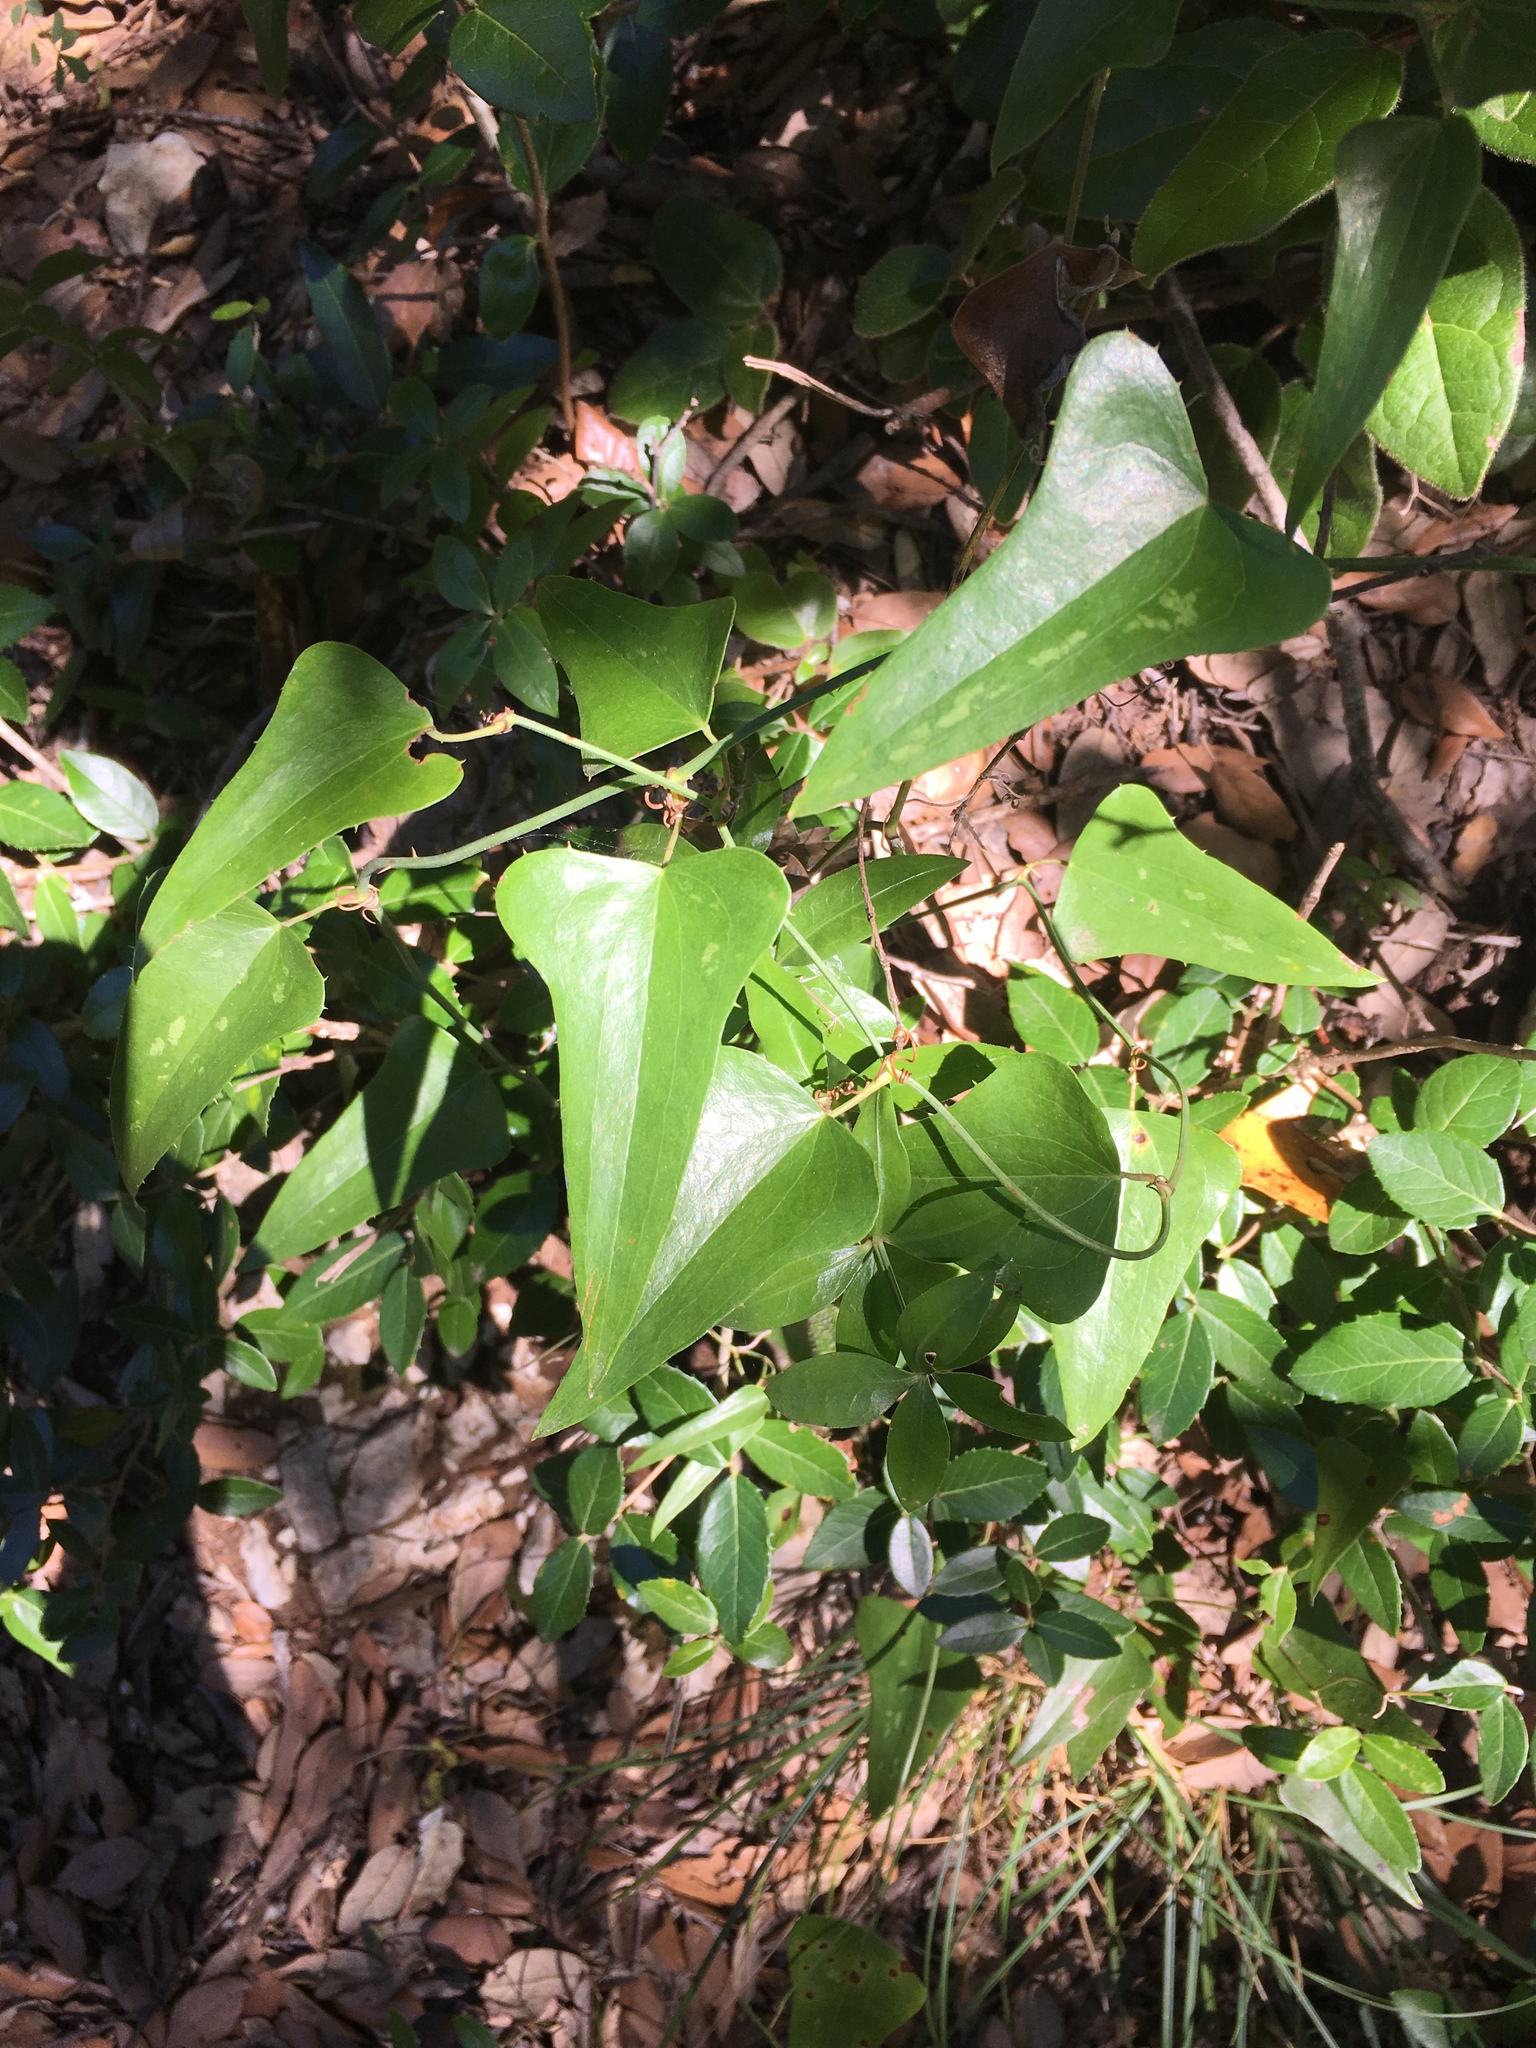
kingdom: Plantae
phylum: Tracheophyta
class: Liliopsida
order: Liliales
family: Smilacaceae
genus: Smilax
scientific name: Smilax aspera
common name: Common smilax
